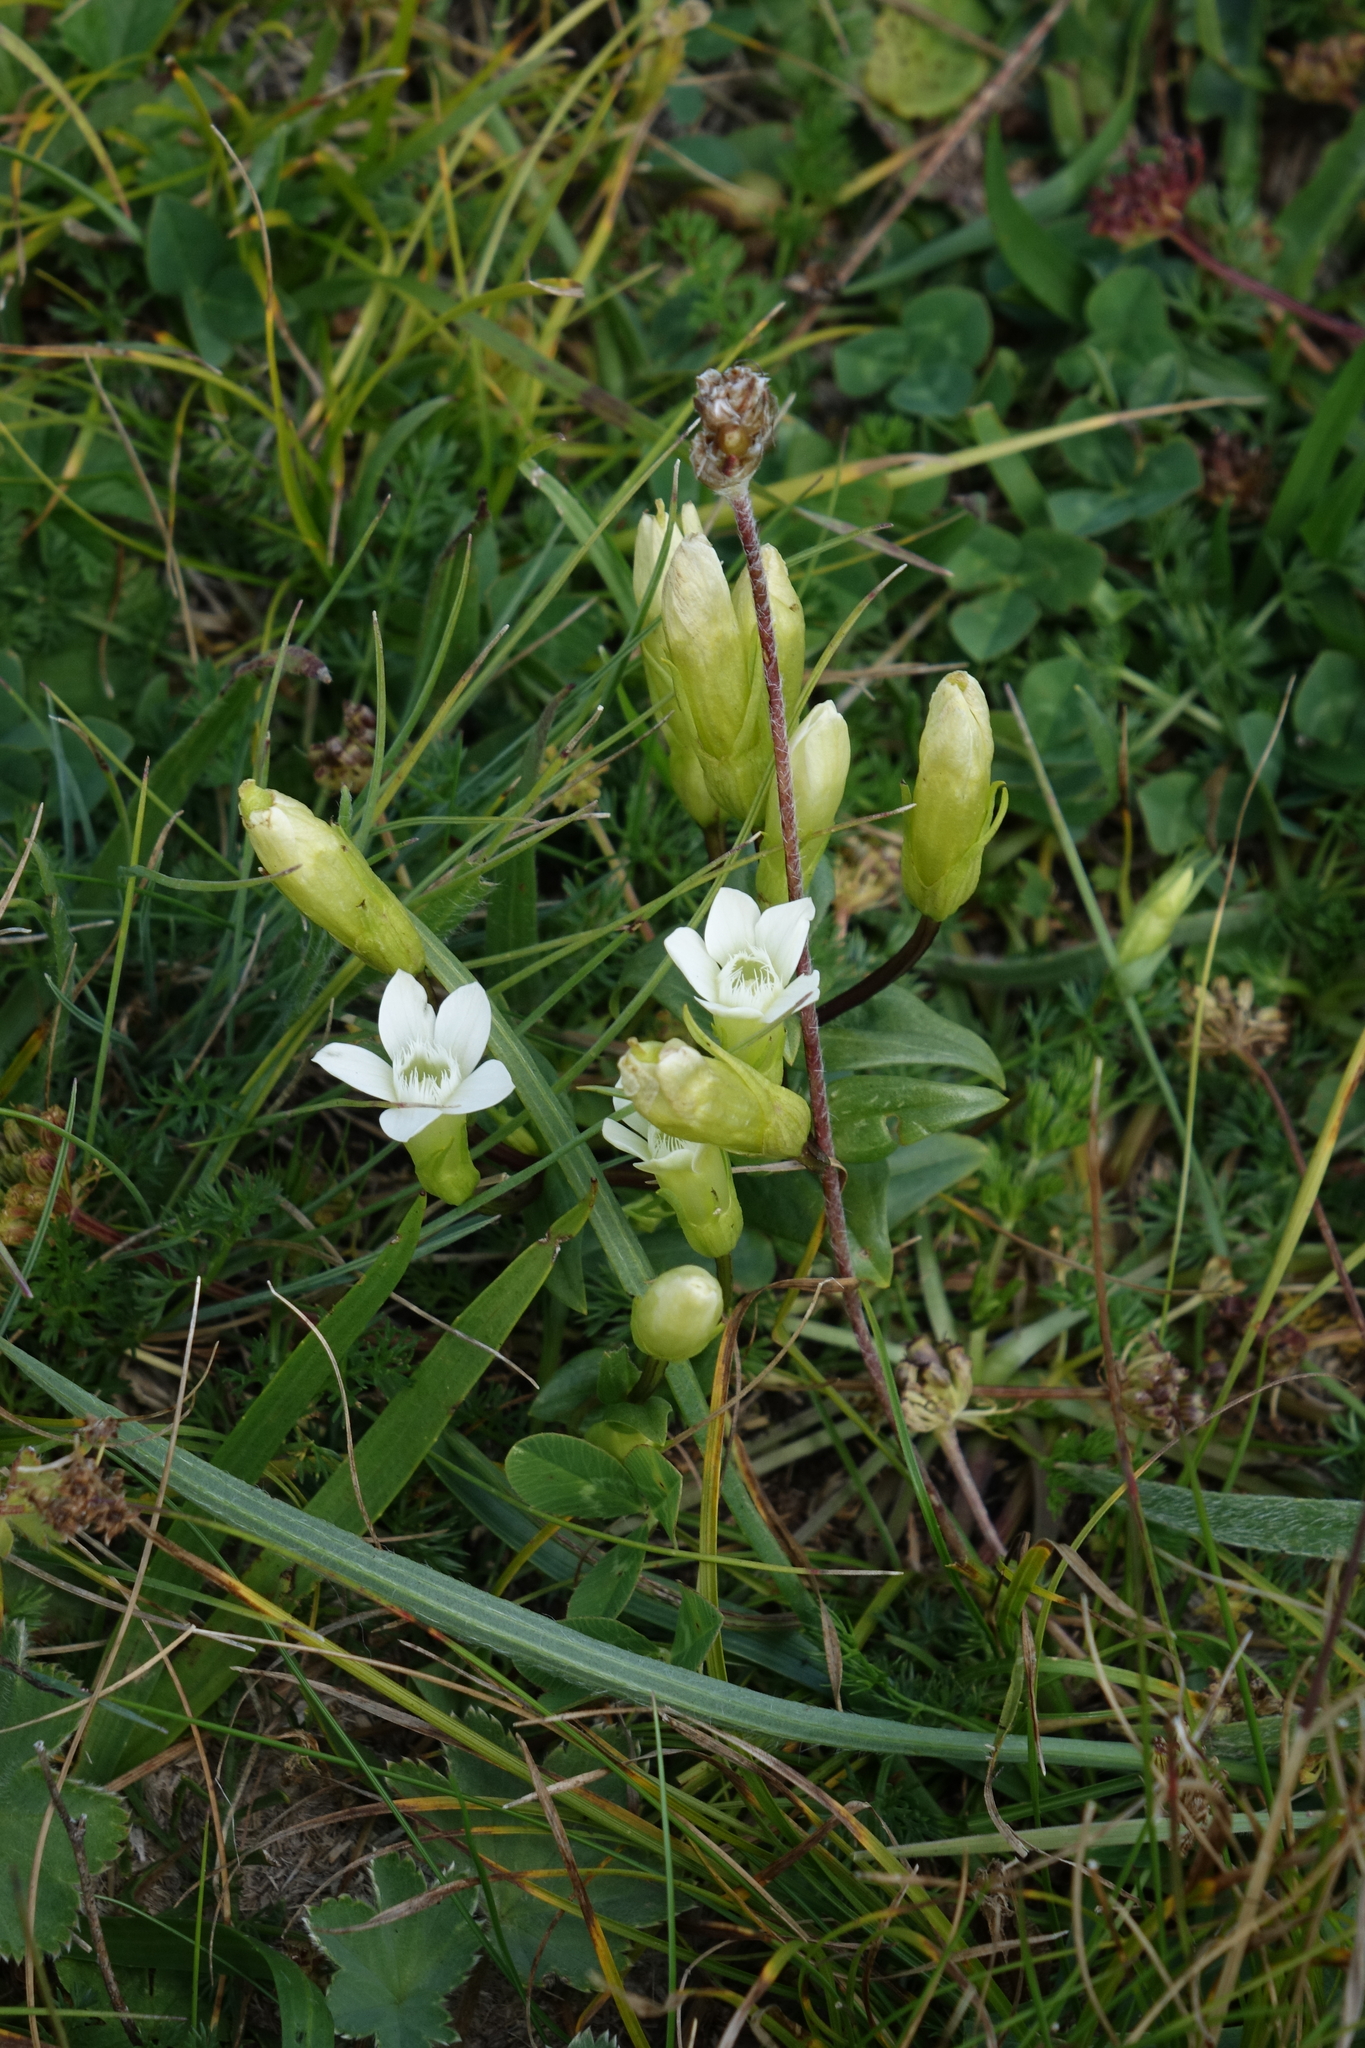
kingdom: Plantae
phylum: Tracheophyta
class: Magnoliopsida
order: Gentianales
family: Gentianaceae
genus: Gentianella
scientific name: Gentianella caucasea
